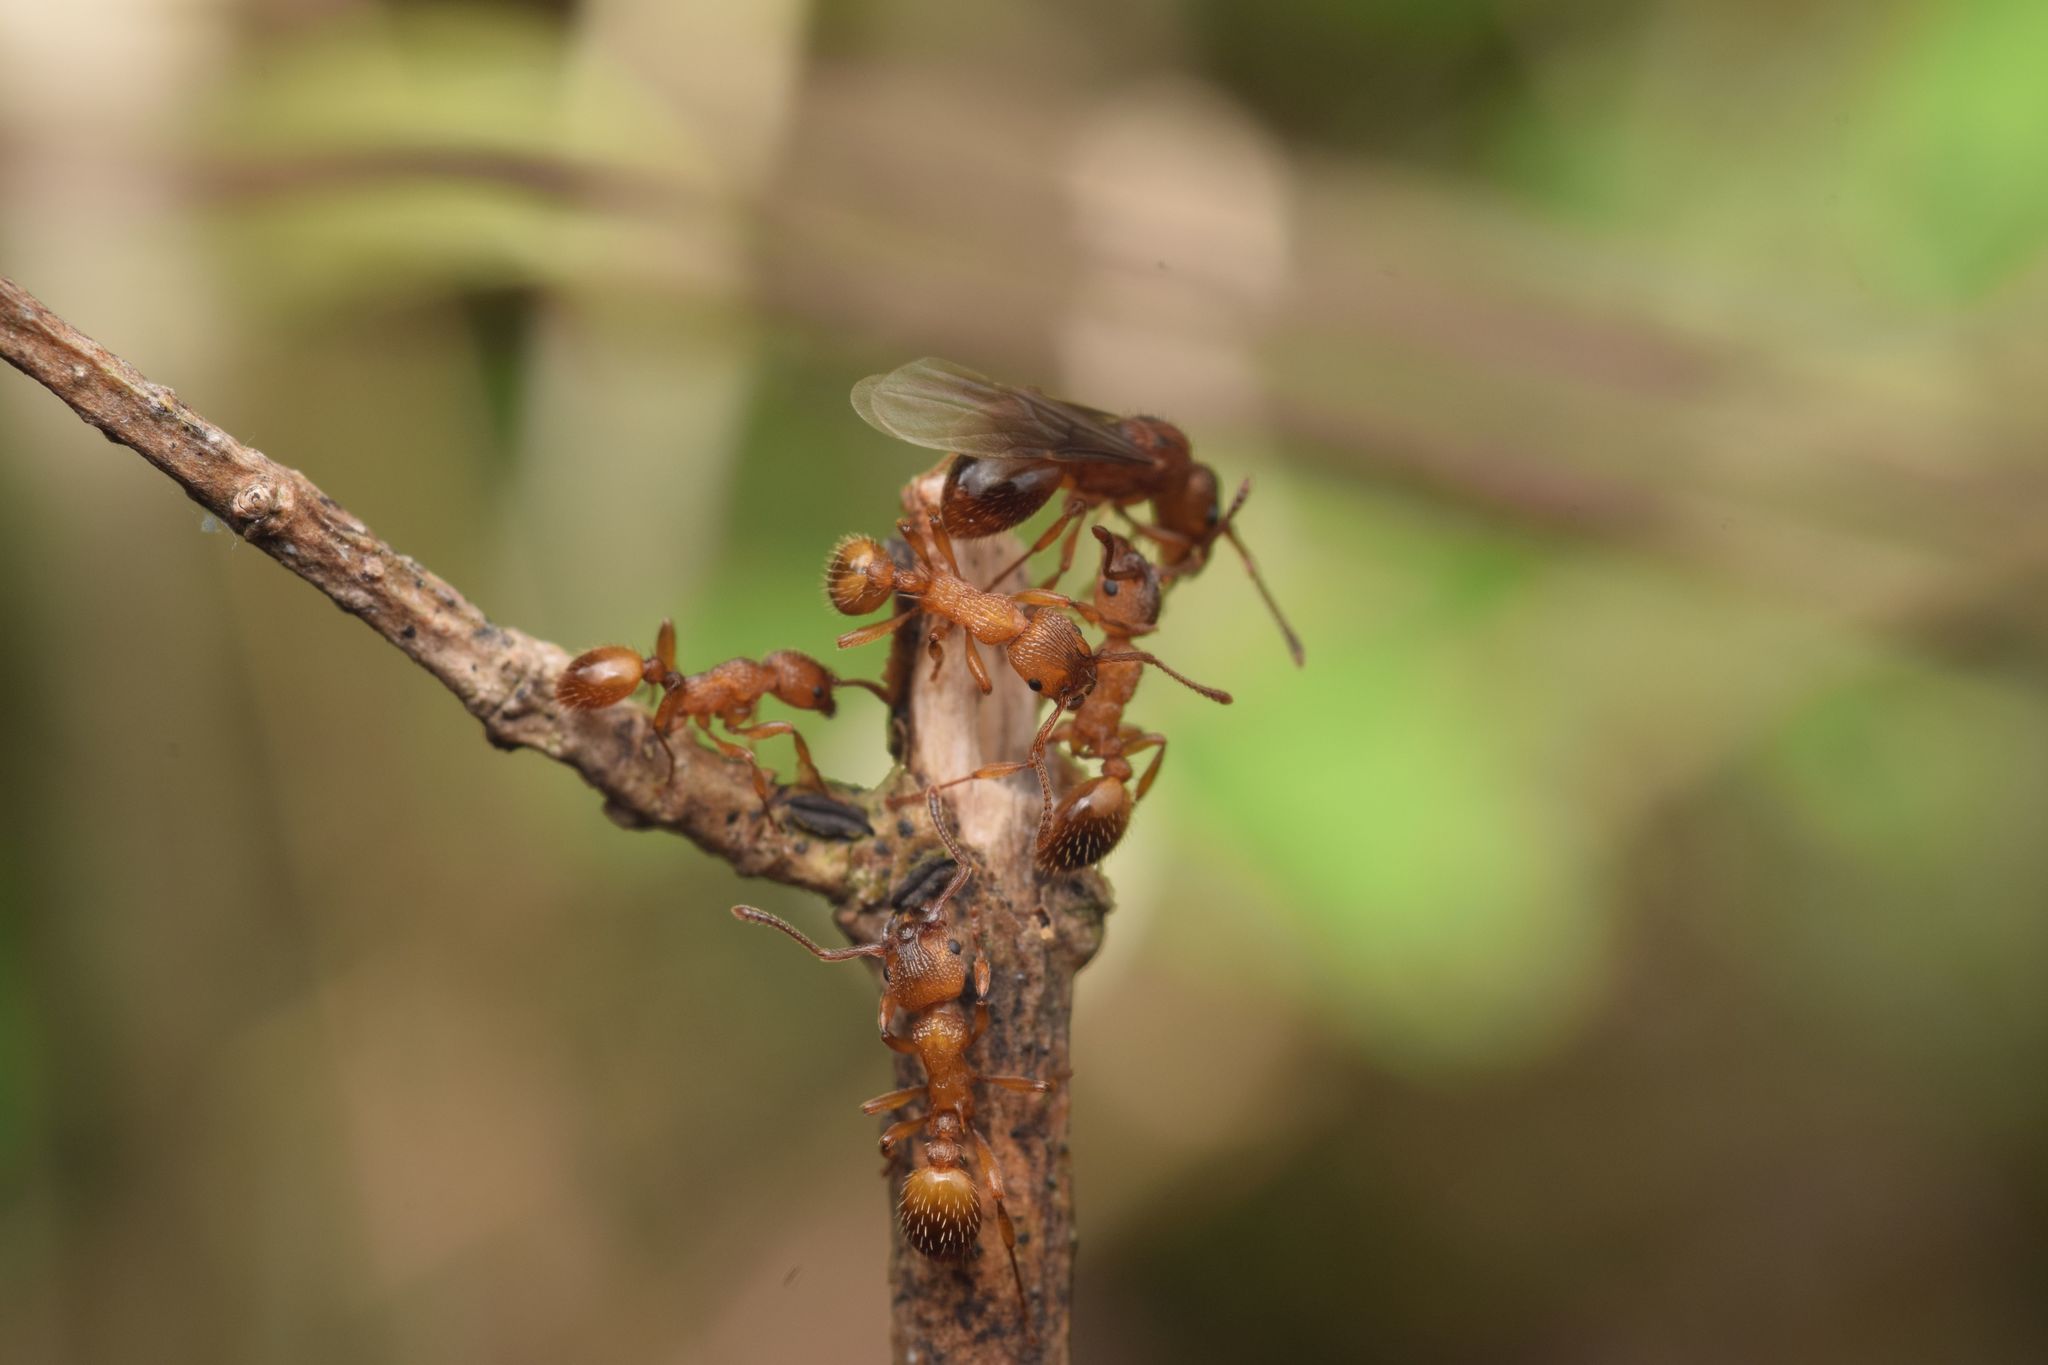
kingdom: Animalia
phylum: Arthropoda
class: Insecta
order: Hymenoptera
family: Formicidae
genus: Myrmica
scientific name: Myrmica sabuleti
